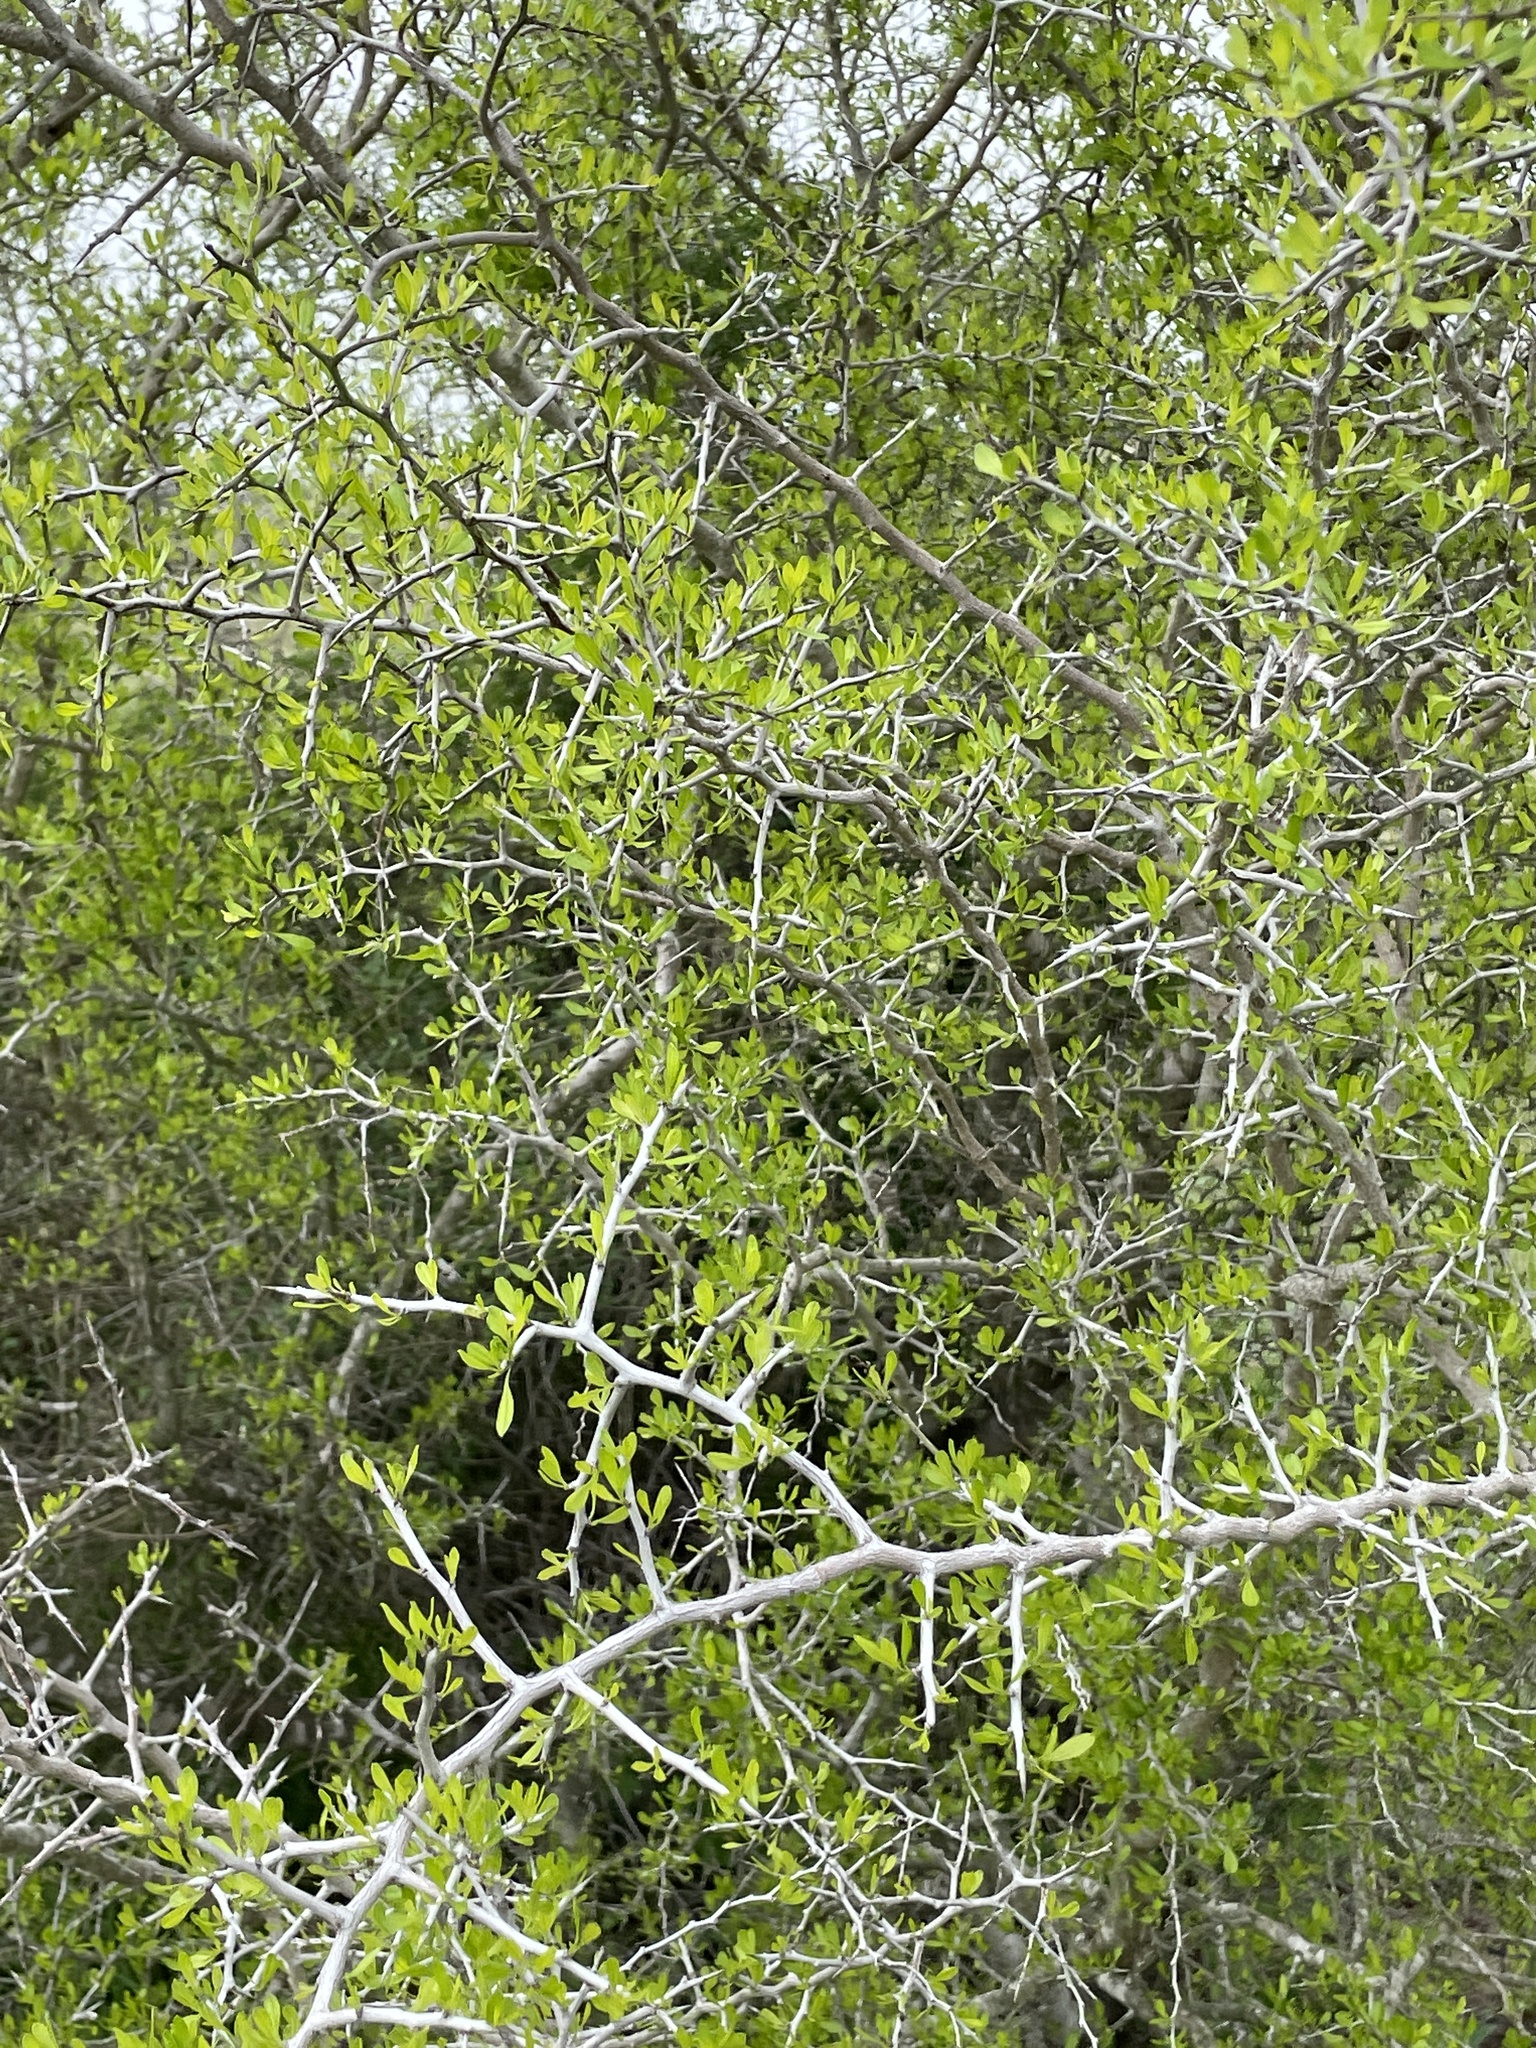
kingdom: Plantae
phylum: Tracheophyta
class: Magnoliopsida
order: Rosales
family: Rhamnaceae
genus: Condalia
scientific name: Condalia hookeri
